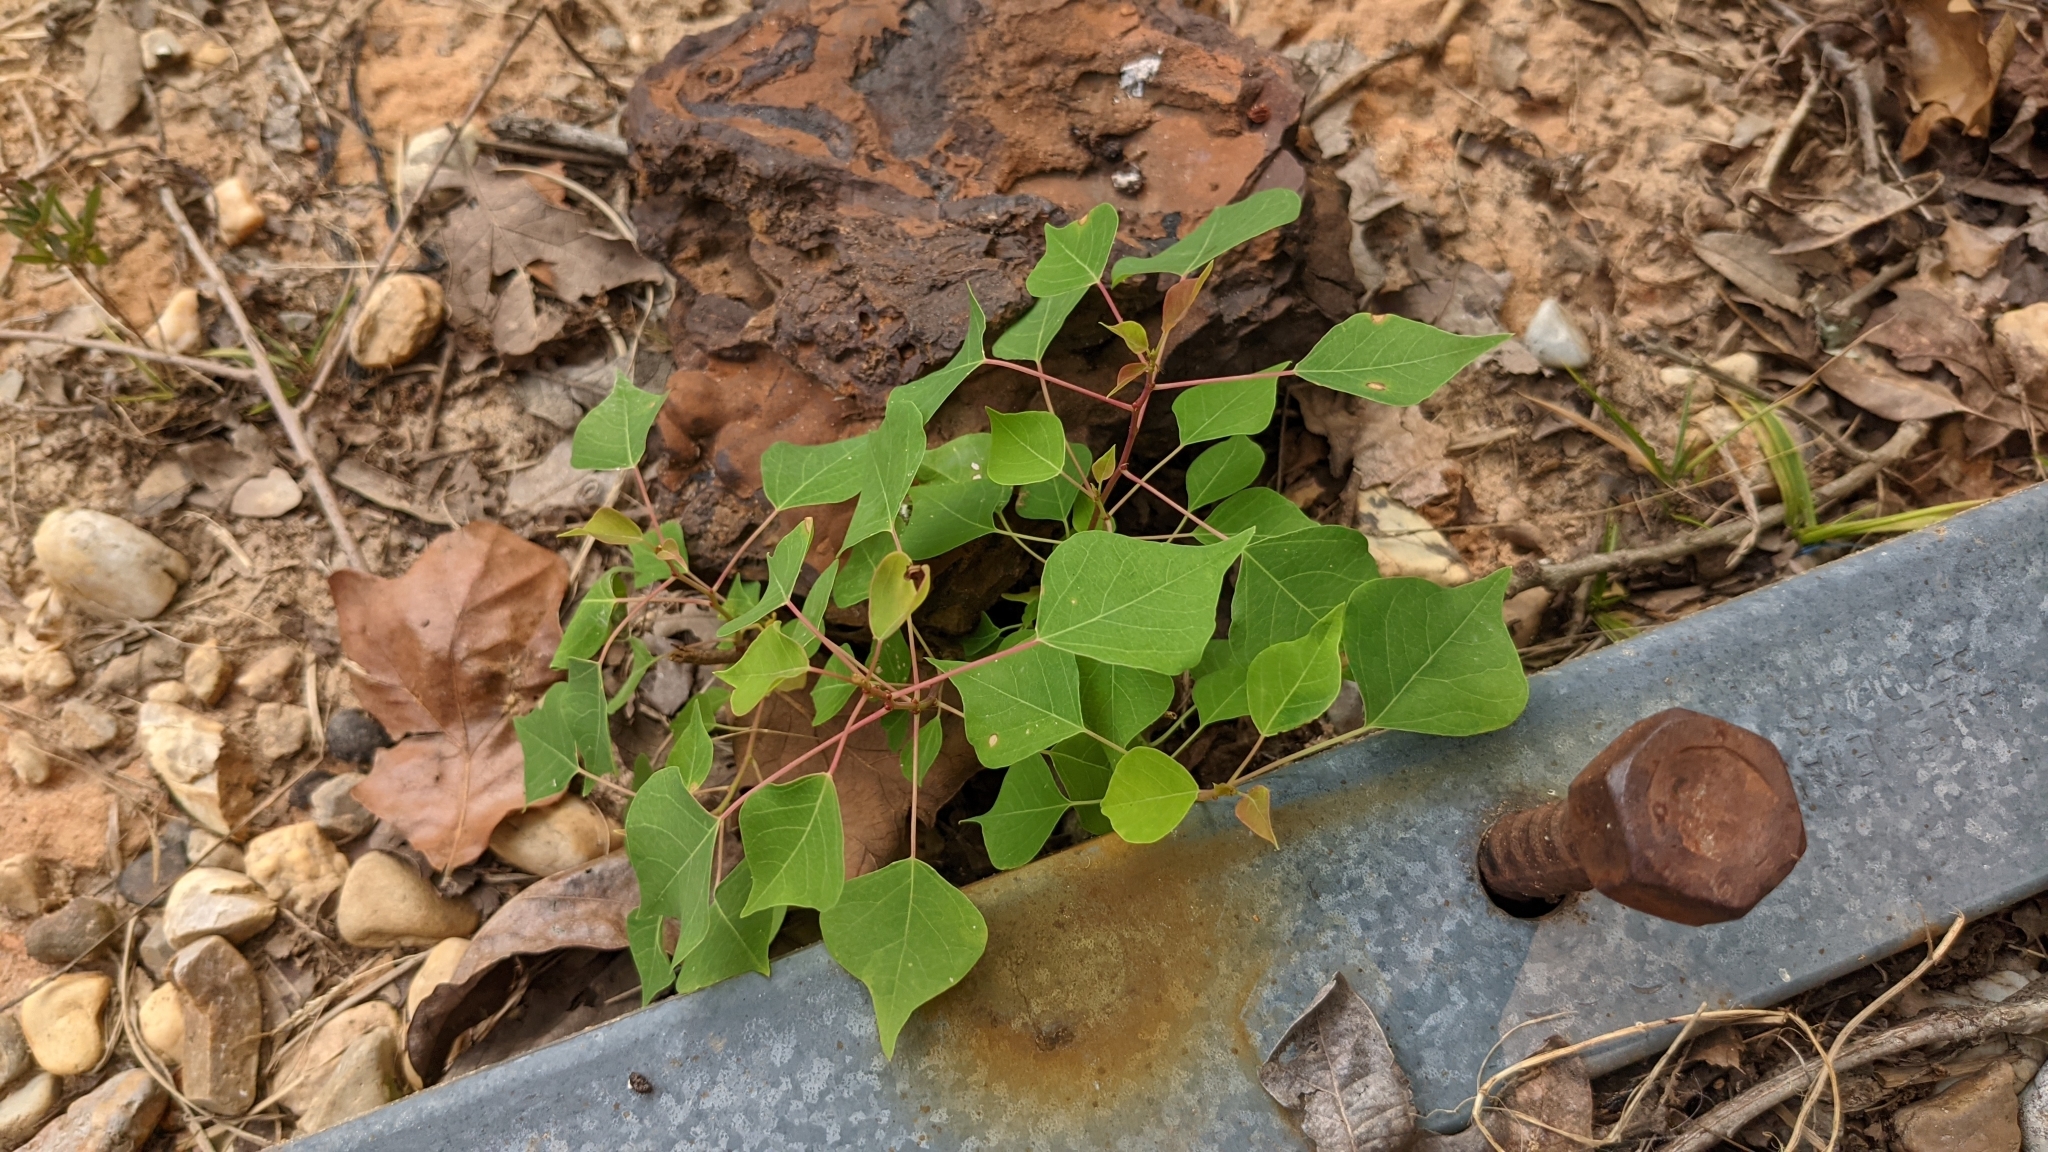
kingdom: Plantae
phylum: Tracheophyta
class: Magnoliopsida
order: Malpighiales
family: Euphorbiaceae
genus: Triadica
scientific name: Triadica sebifera
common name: Chinese tallow
